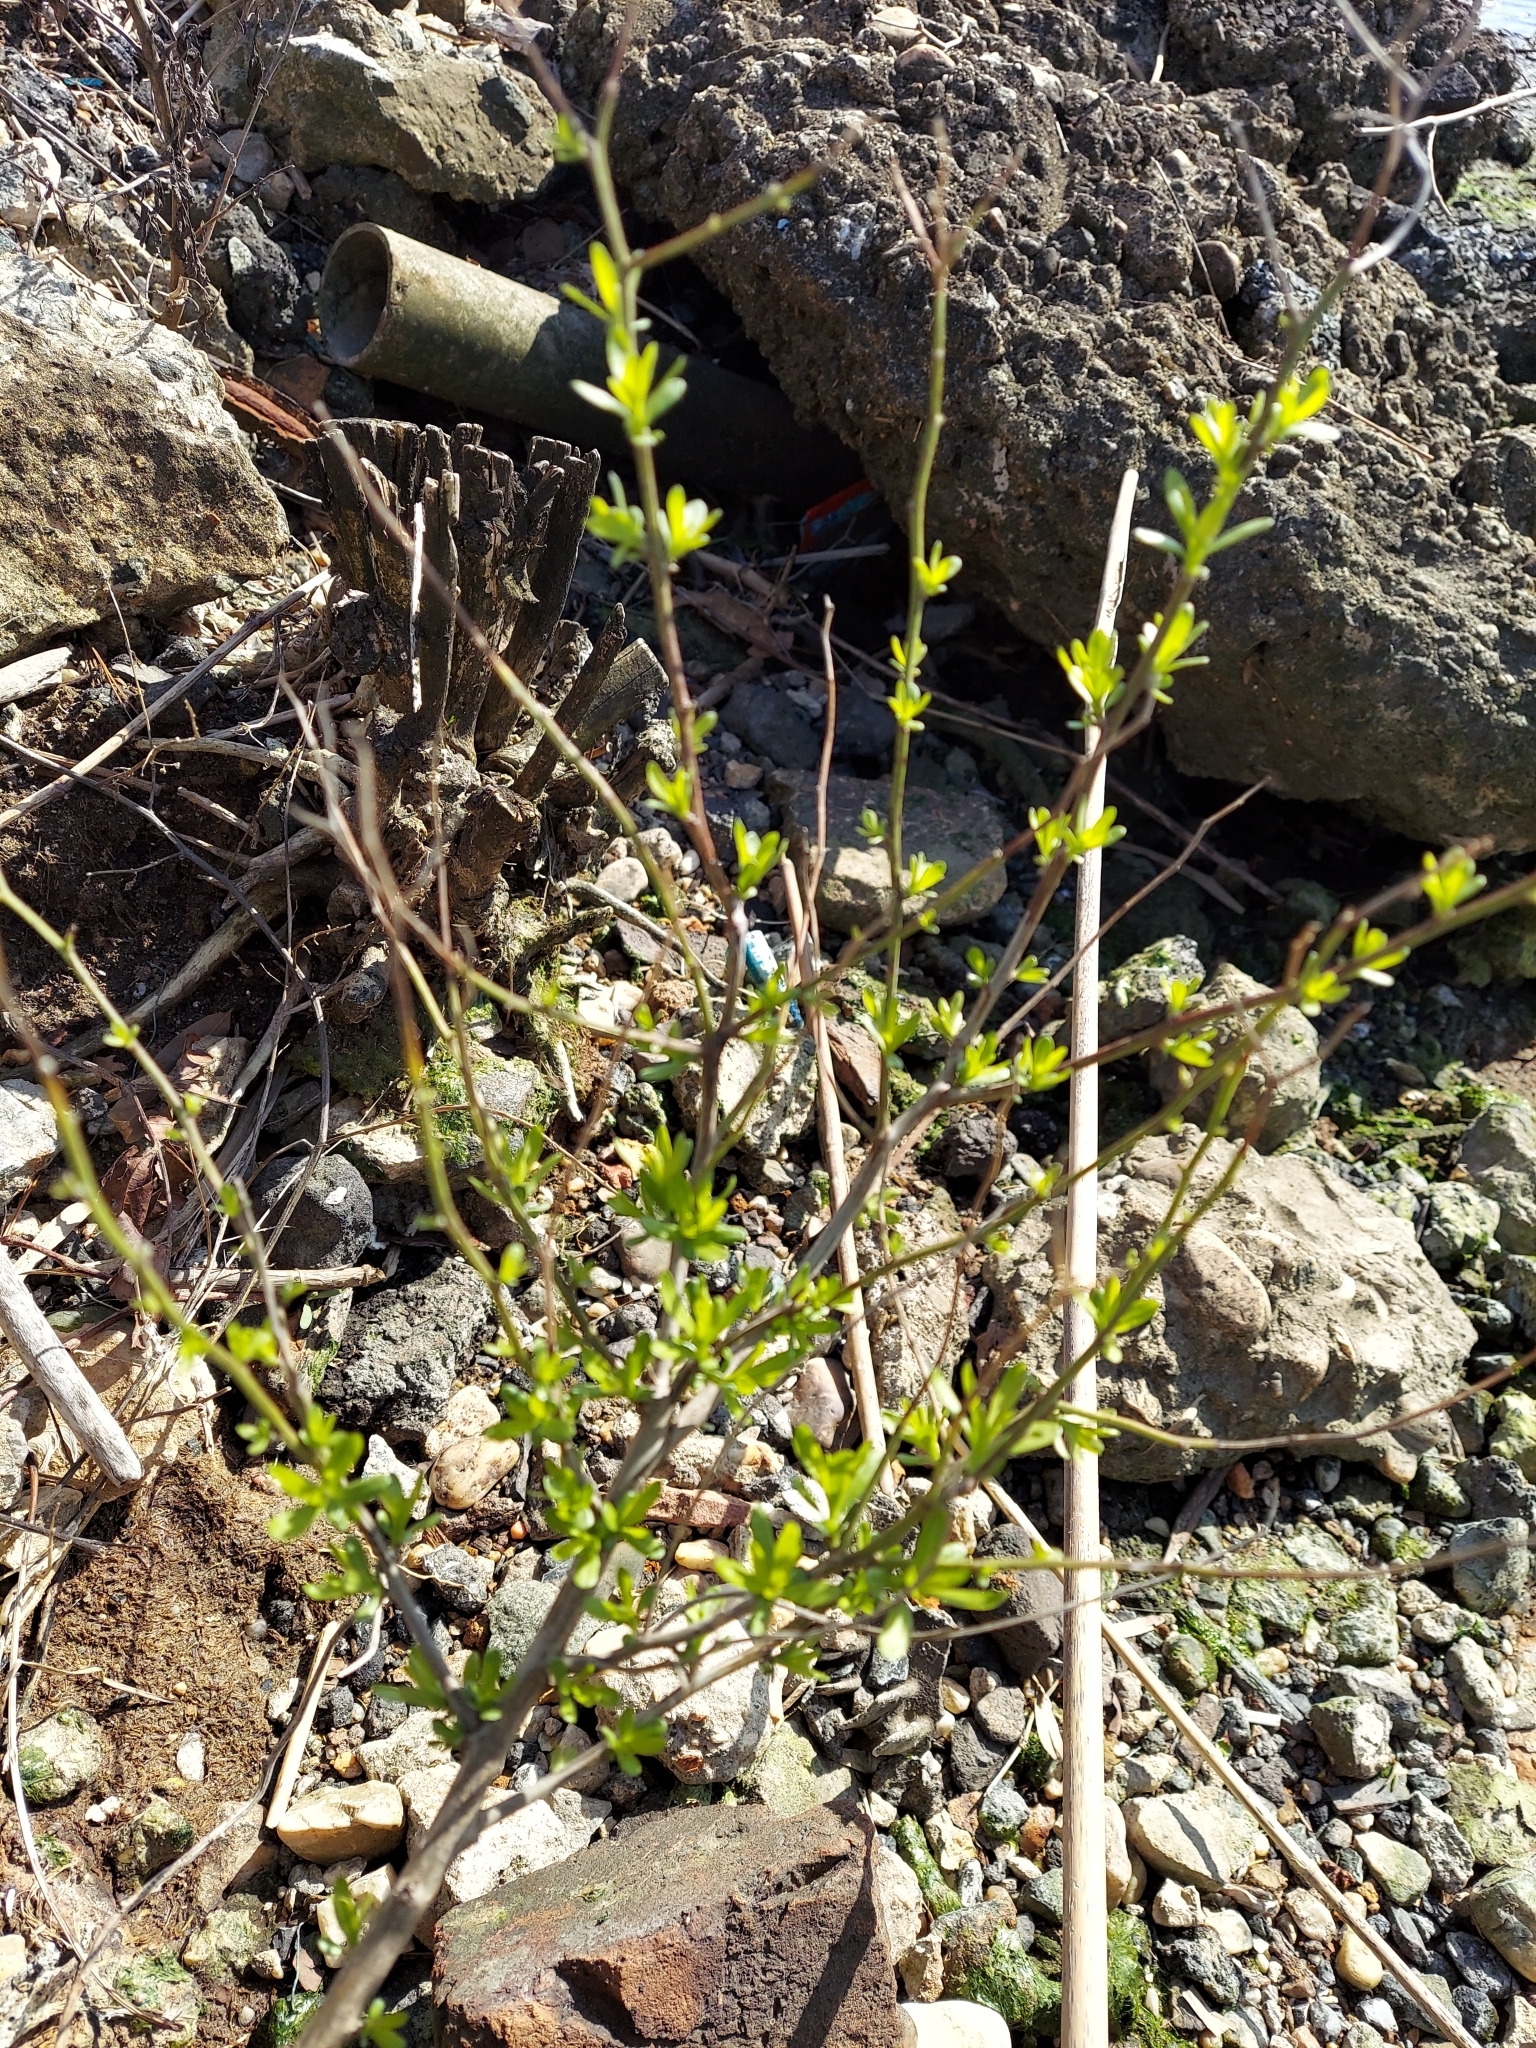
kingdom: Plantae
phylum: Tracheophyta
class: Magnoliopsida
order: Asterales
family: Asteraceae
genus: Iva
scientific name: Iva frutescens
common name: Big-leaved marsh-elder
